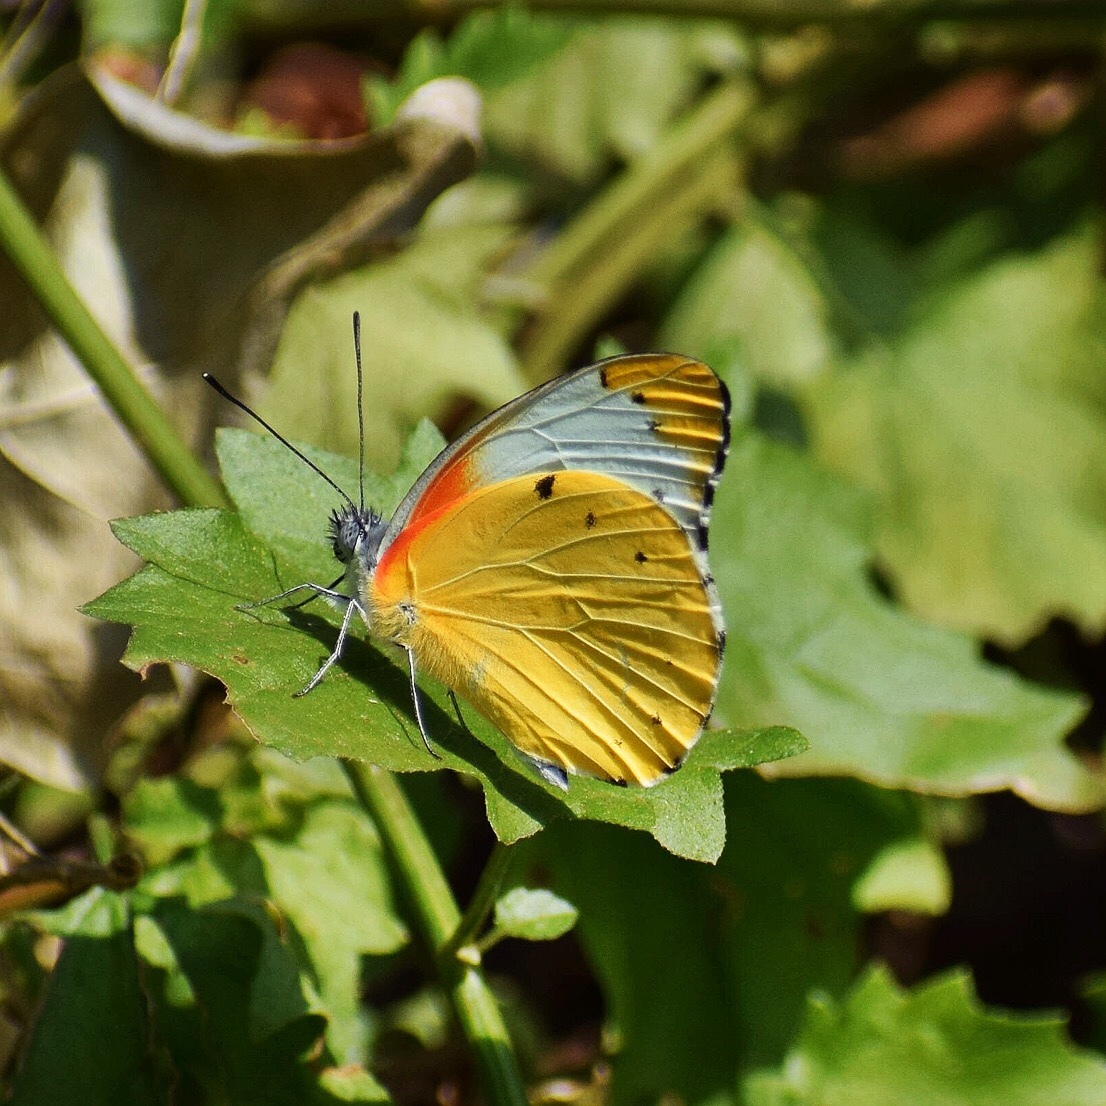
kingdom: Animalia
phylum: Arthropoda
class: Insecta
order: Lepidoptera
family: Pieridae
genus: Belenois
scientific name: Belenois thysa
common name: False dotted border
